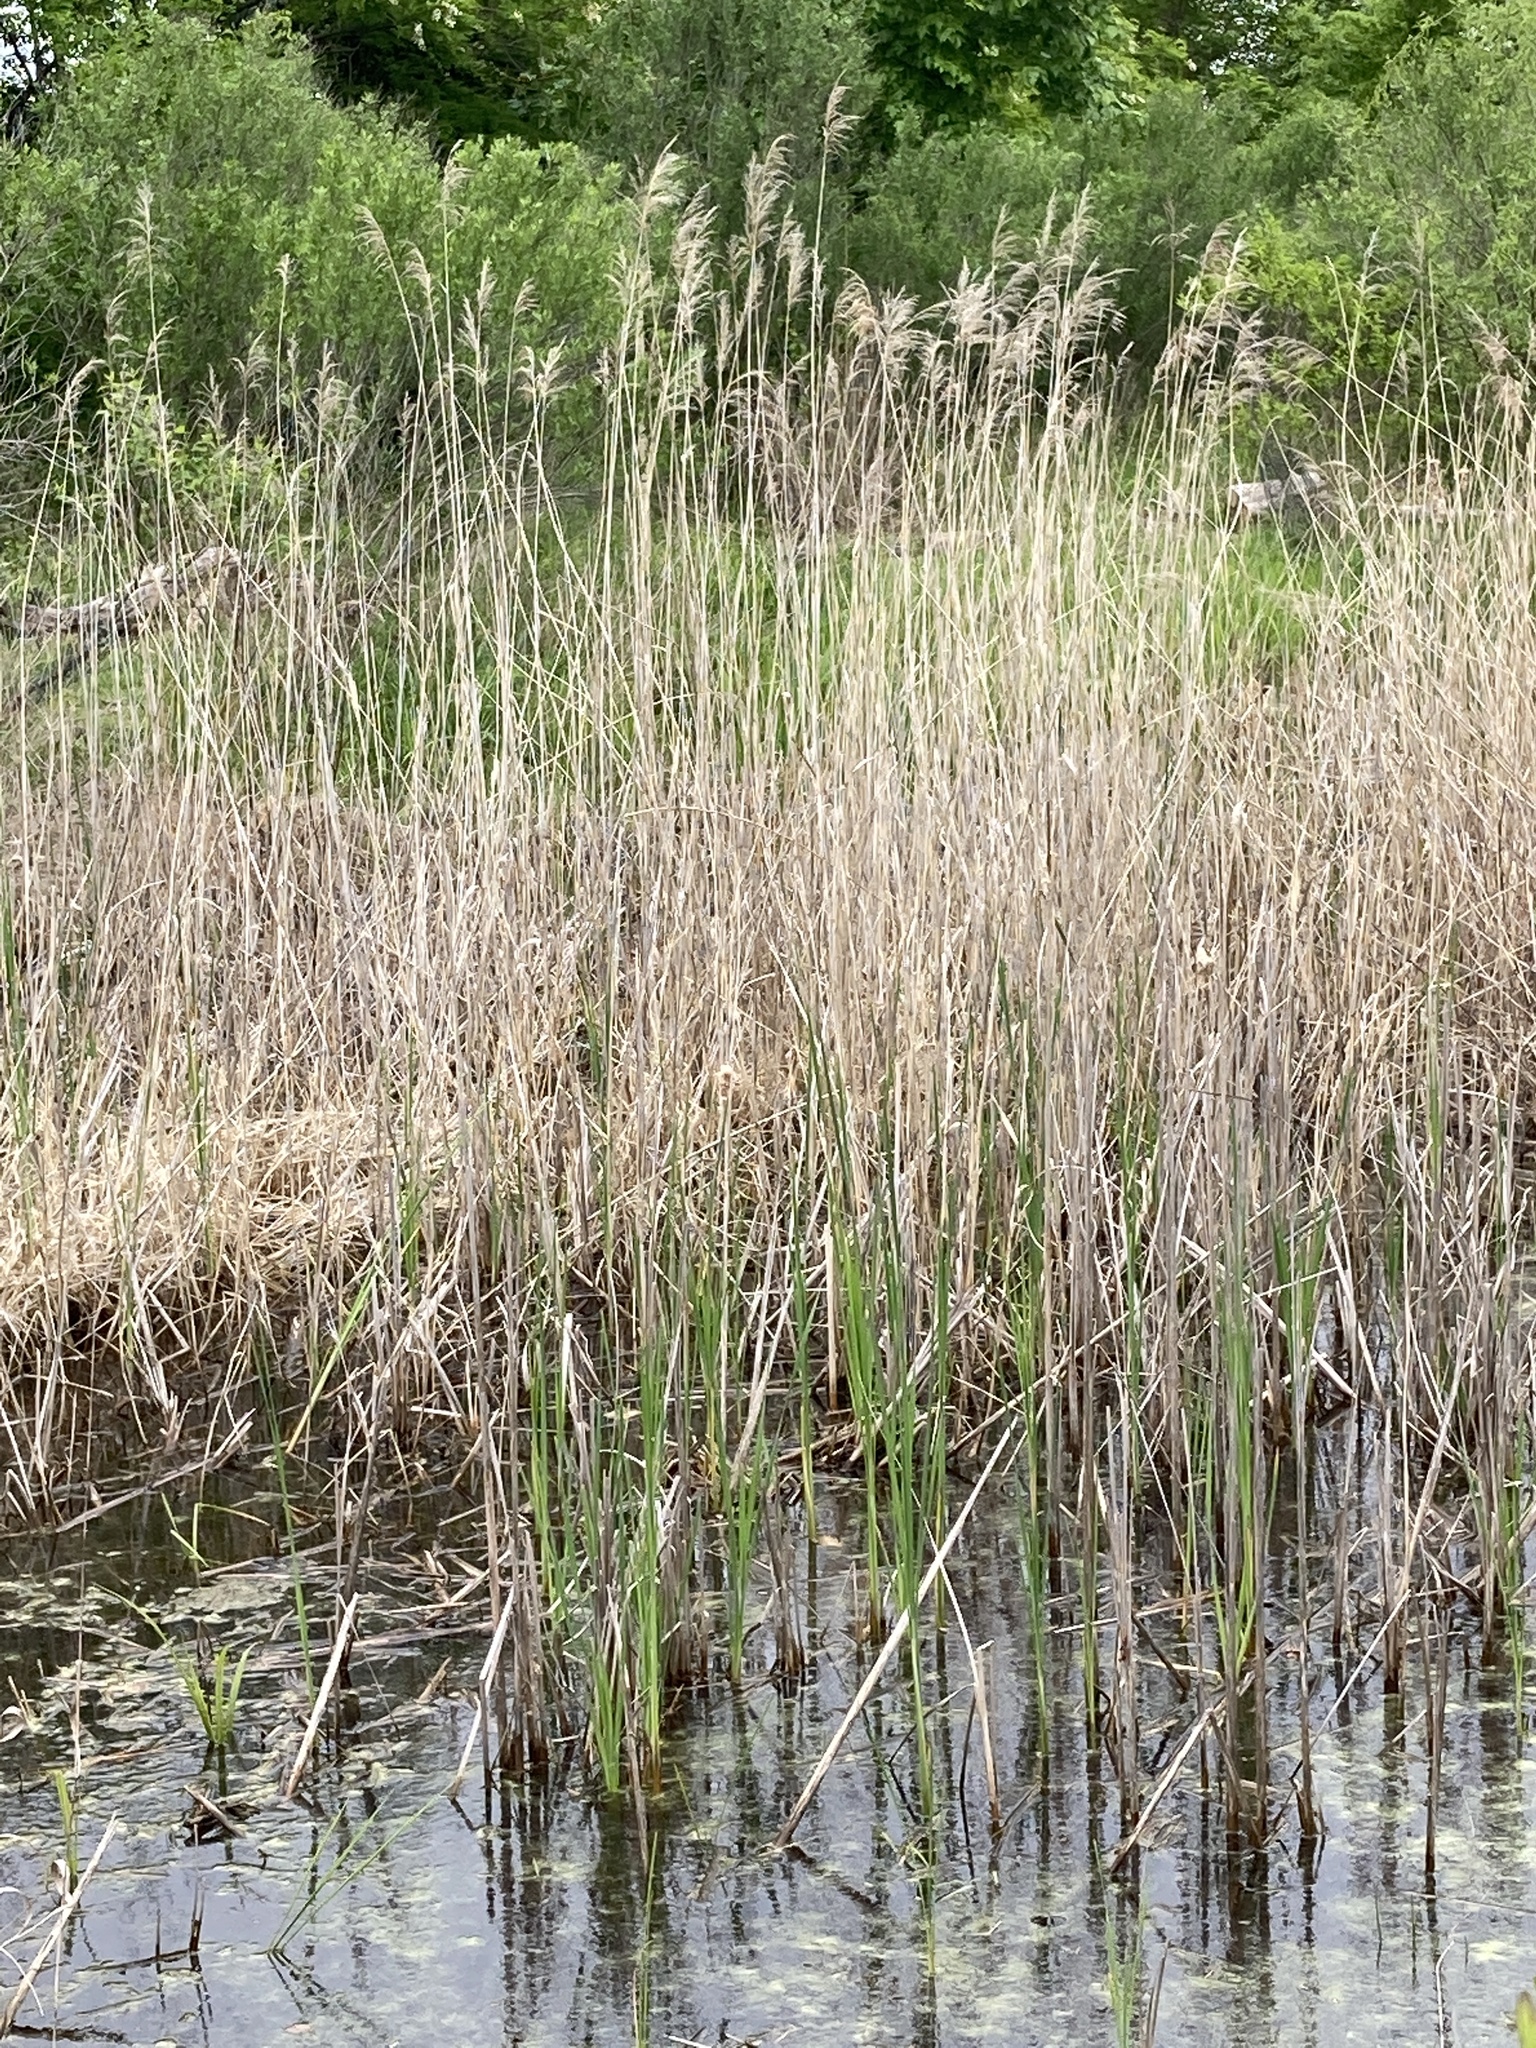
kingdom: Plantae
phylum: Tracheophyta
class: Liliopsida
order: Poales
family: Poaceae
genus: Phragmites
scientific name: Phragmites australis
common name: Common reed
